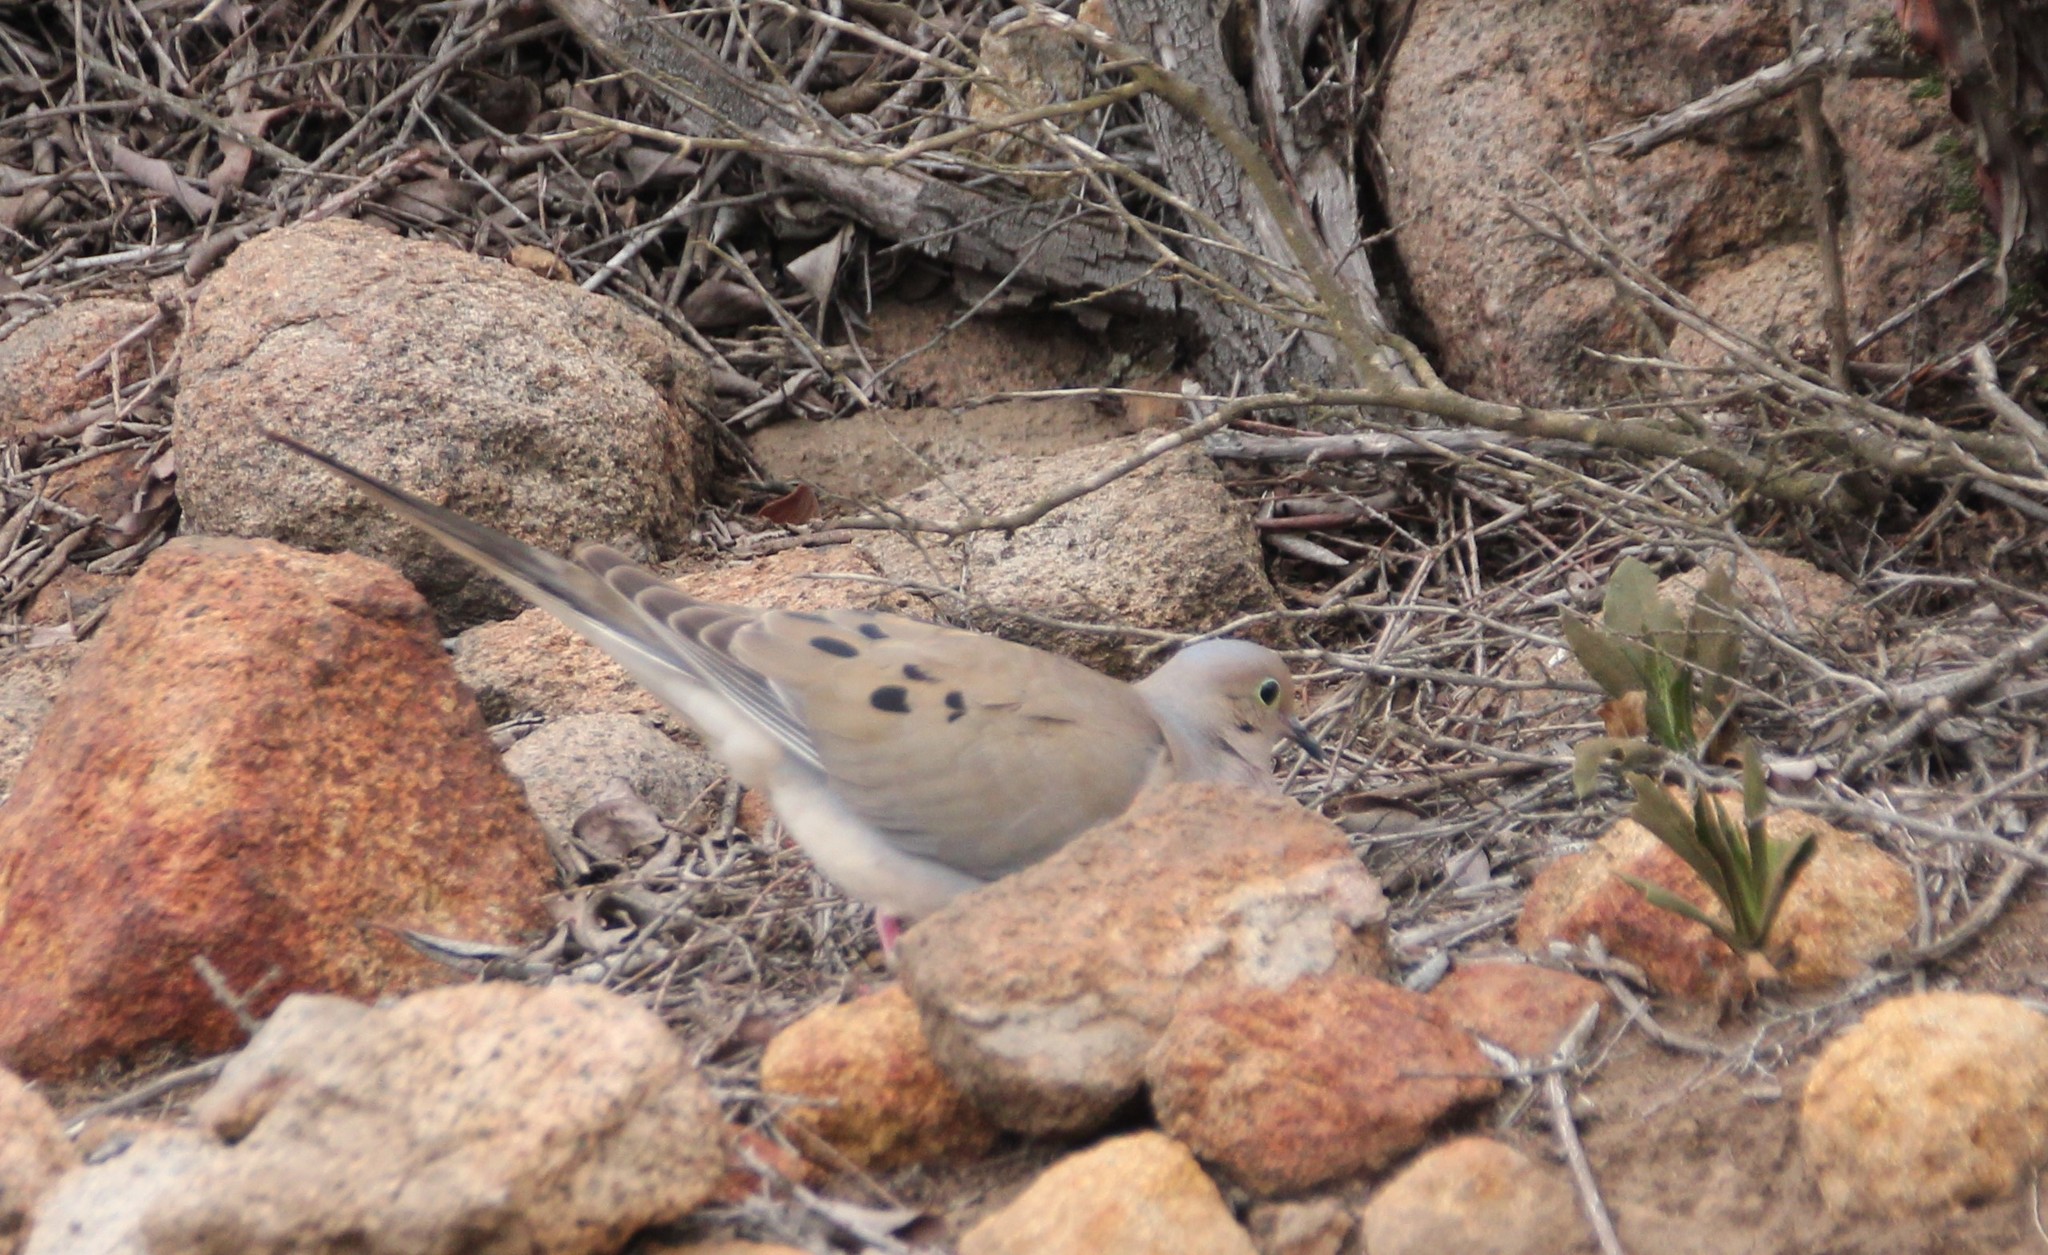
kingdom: Animalia
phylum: Chordata
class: Aves
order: Columbiformes
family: Columbidae
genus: Zenaida
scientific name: Zenaida macroura
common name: Mourning dove
